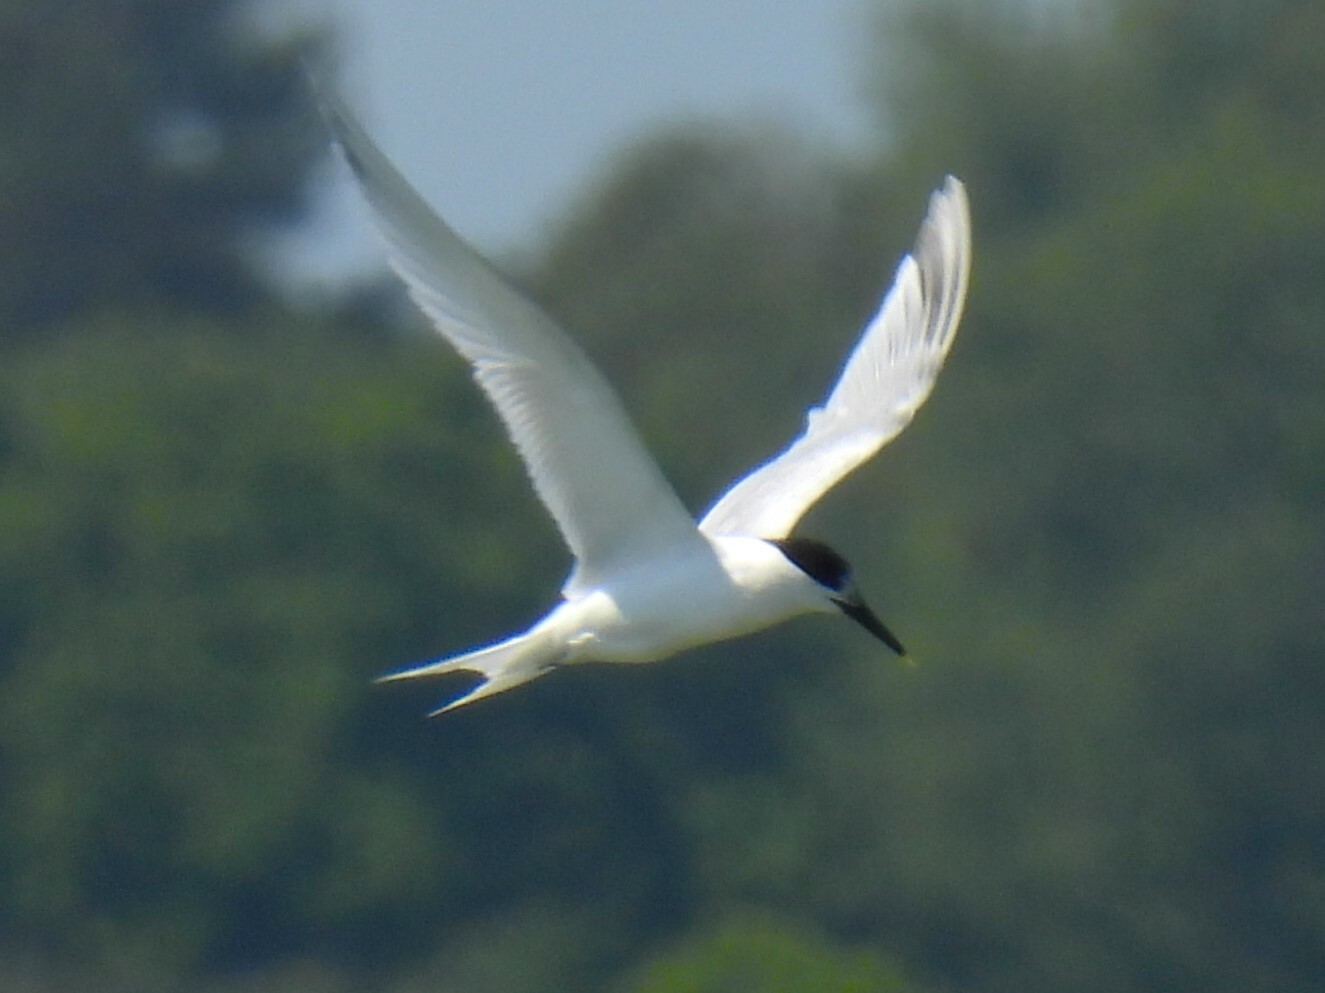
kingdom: Animalia
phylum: Chordata
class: Aves
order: Charadriiformes
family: Laridae
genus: Thalasseus
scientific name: Thalasseus sandvicensis
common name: Sandwich tern
